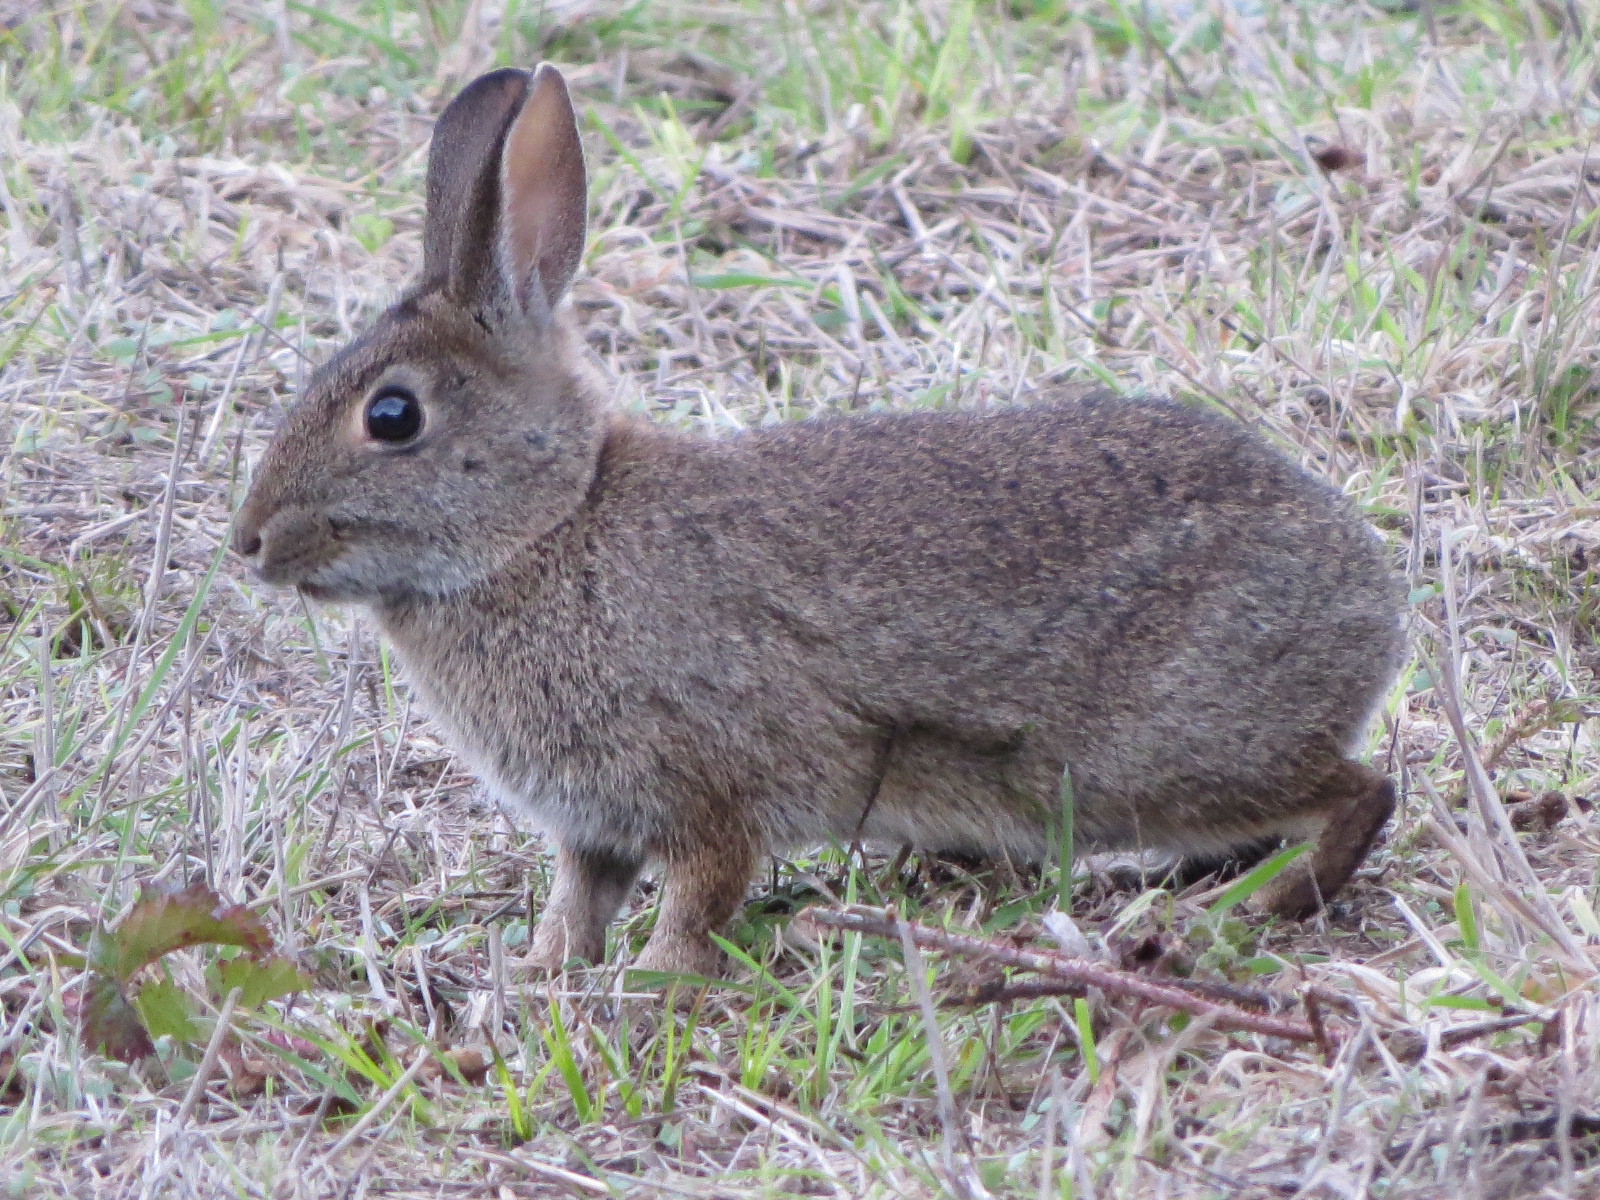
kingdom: Animalia
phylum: Chordata
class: Mammalia
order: Lagomorpha
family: Leporidae
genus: Sylvilagus
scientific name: Sylvilagus bachmani
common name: Brush rabbit
